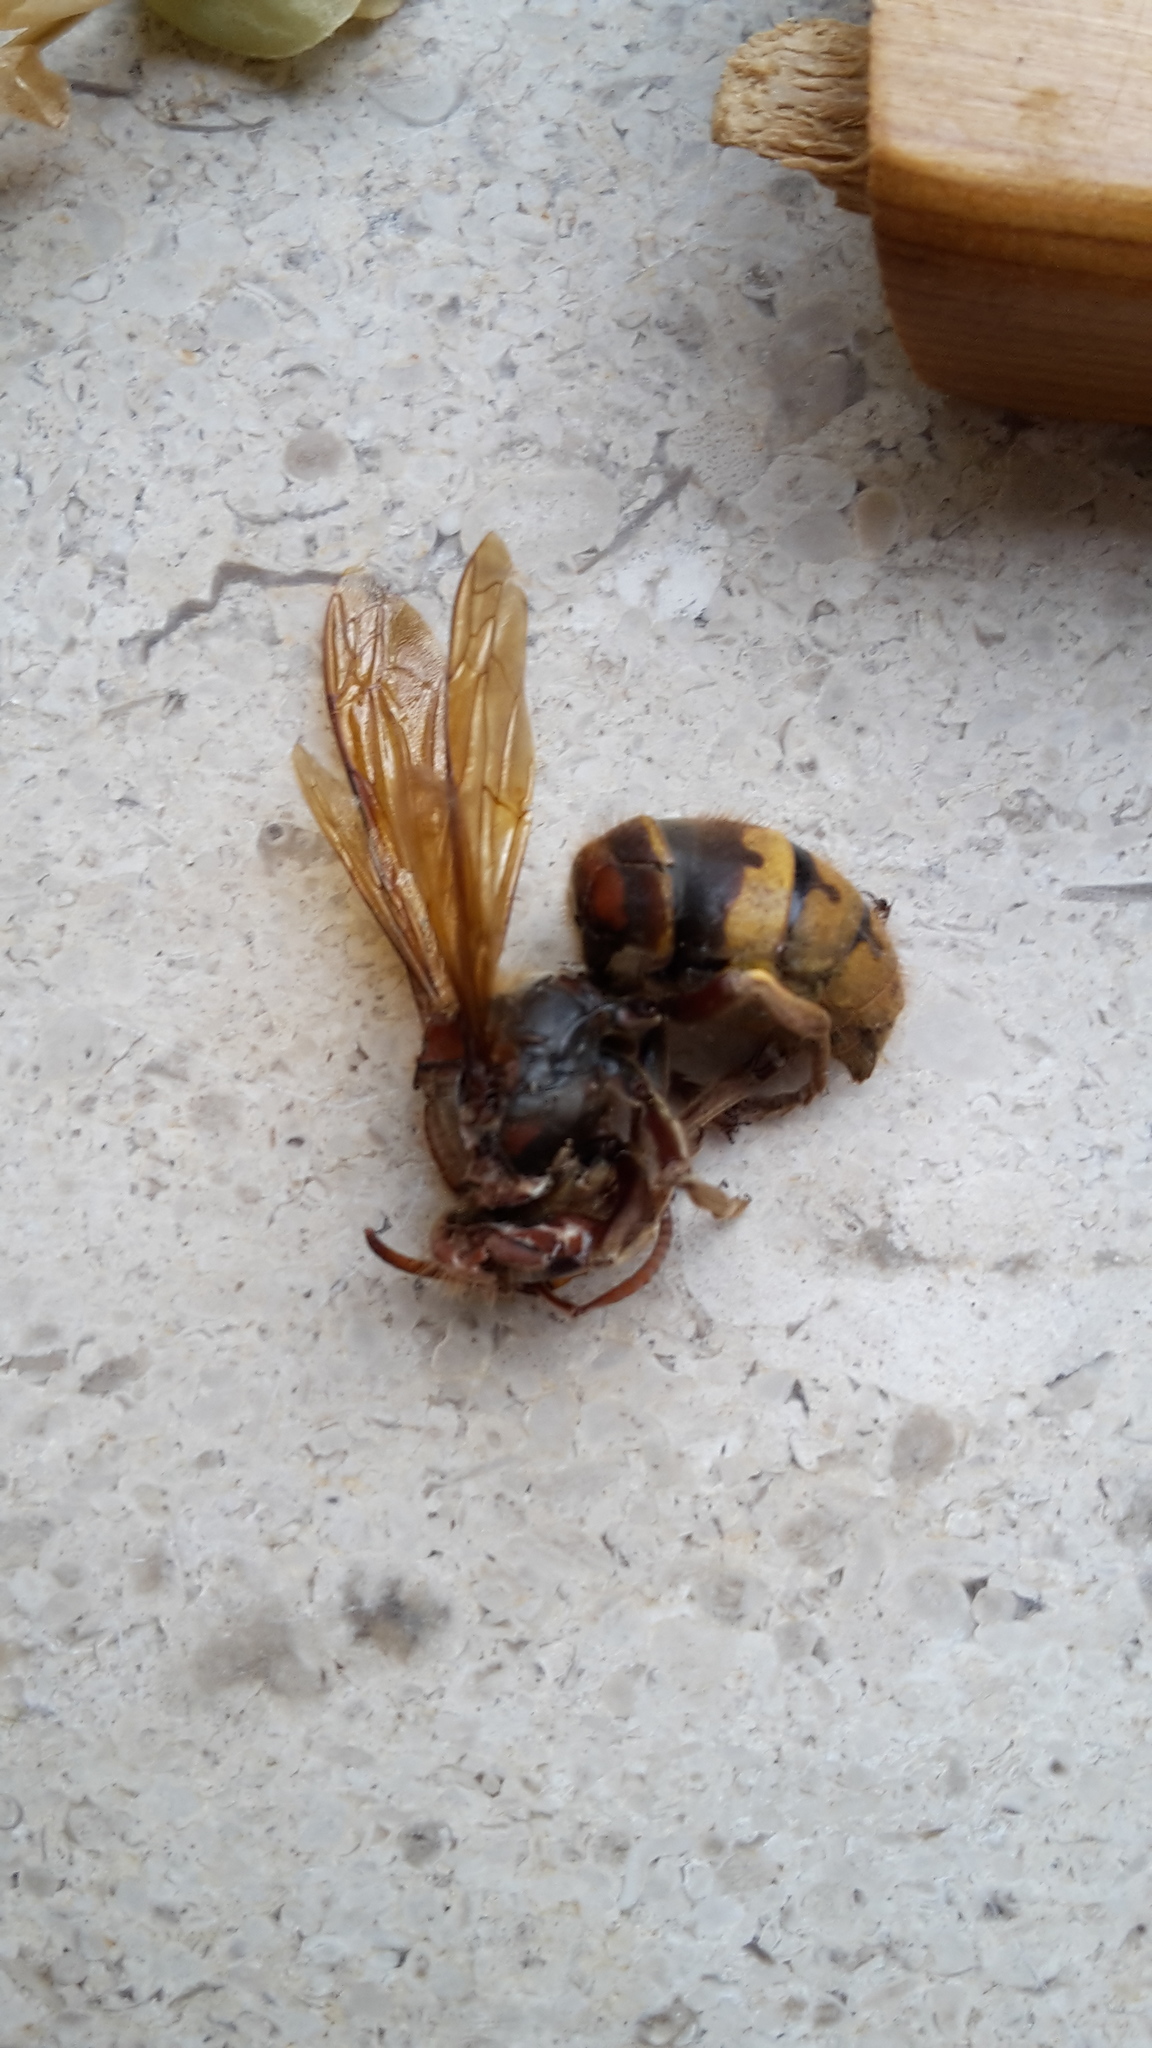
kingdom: Animalia
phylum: Arthropoda
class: Insecta
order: Hymenoptera
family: Vespidae
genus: Vespa
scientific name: Vespa crabro
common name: Hornet
